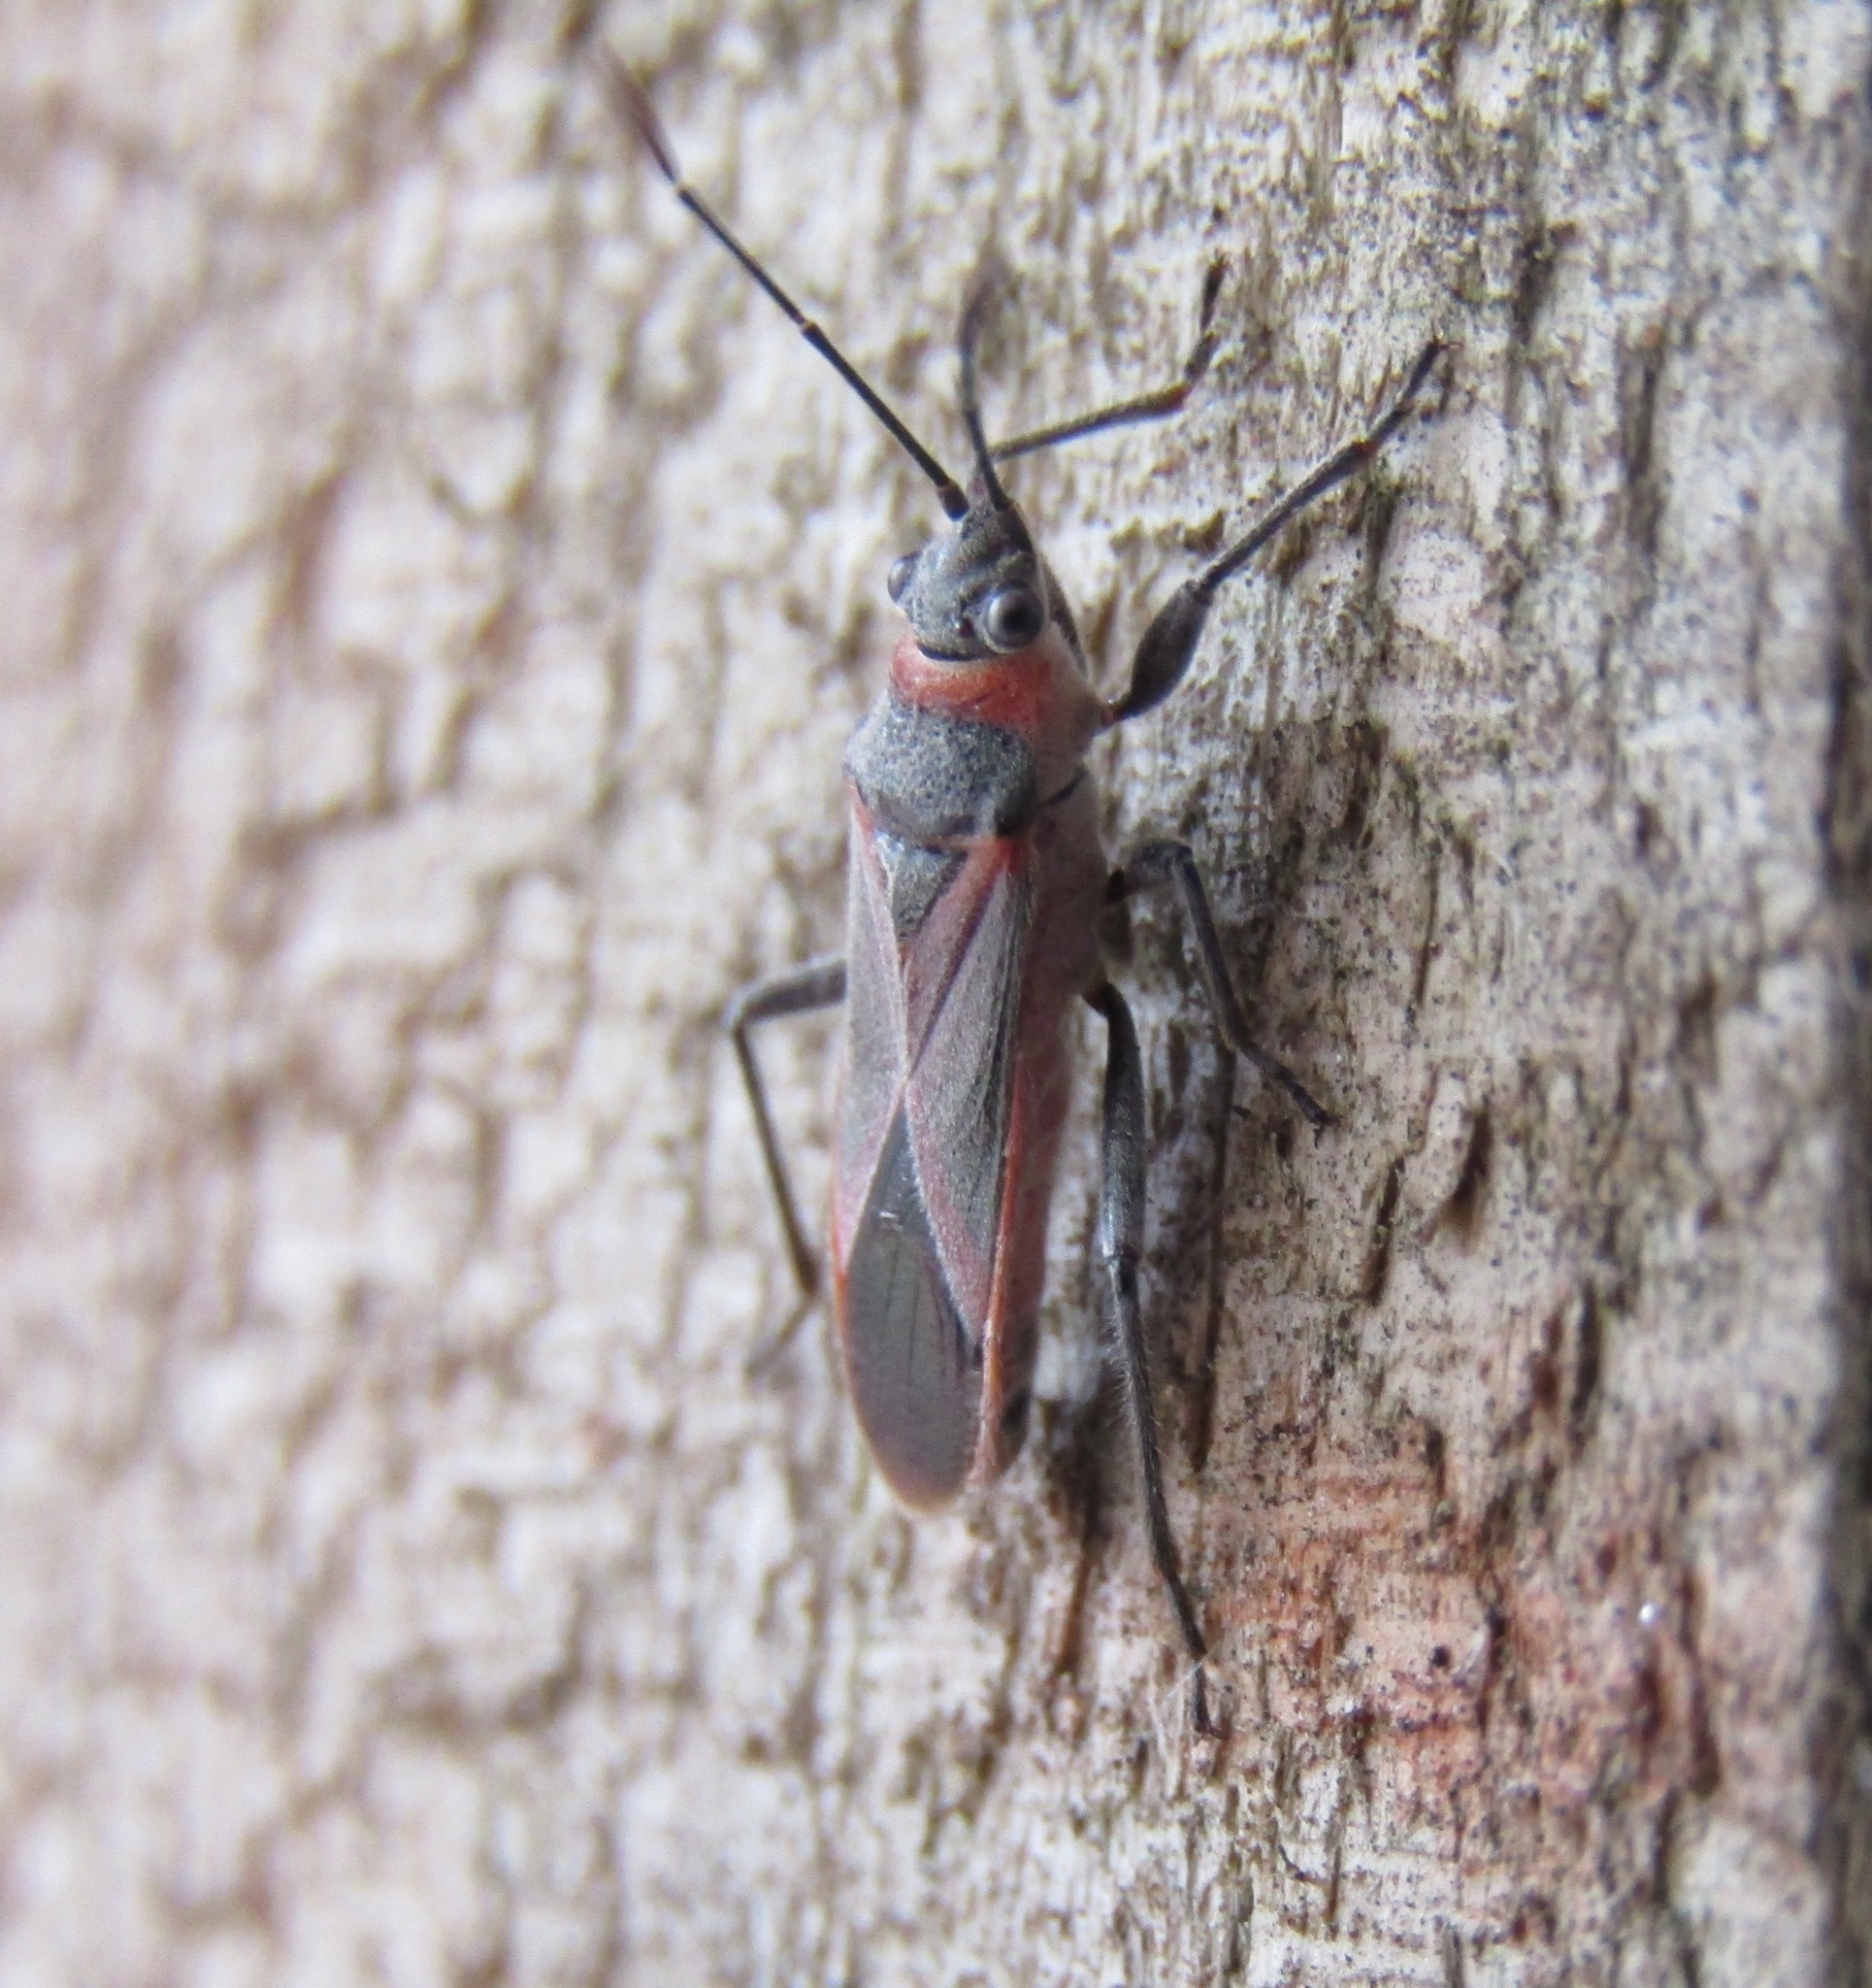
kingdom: Animalia
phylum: Arthropoda
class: Insecta
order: Hemiptera
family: Lygaeidae
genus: Arocatus
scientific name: Arocatus rusticus
